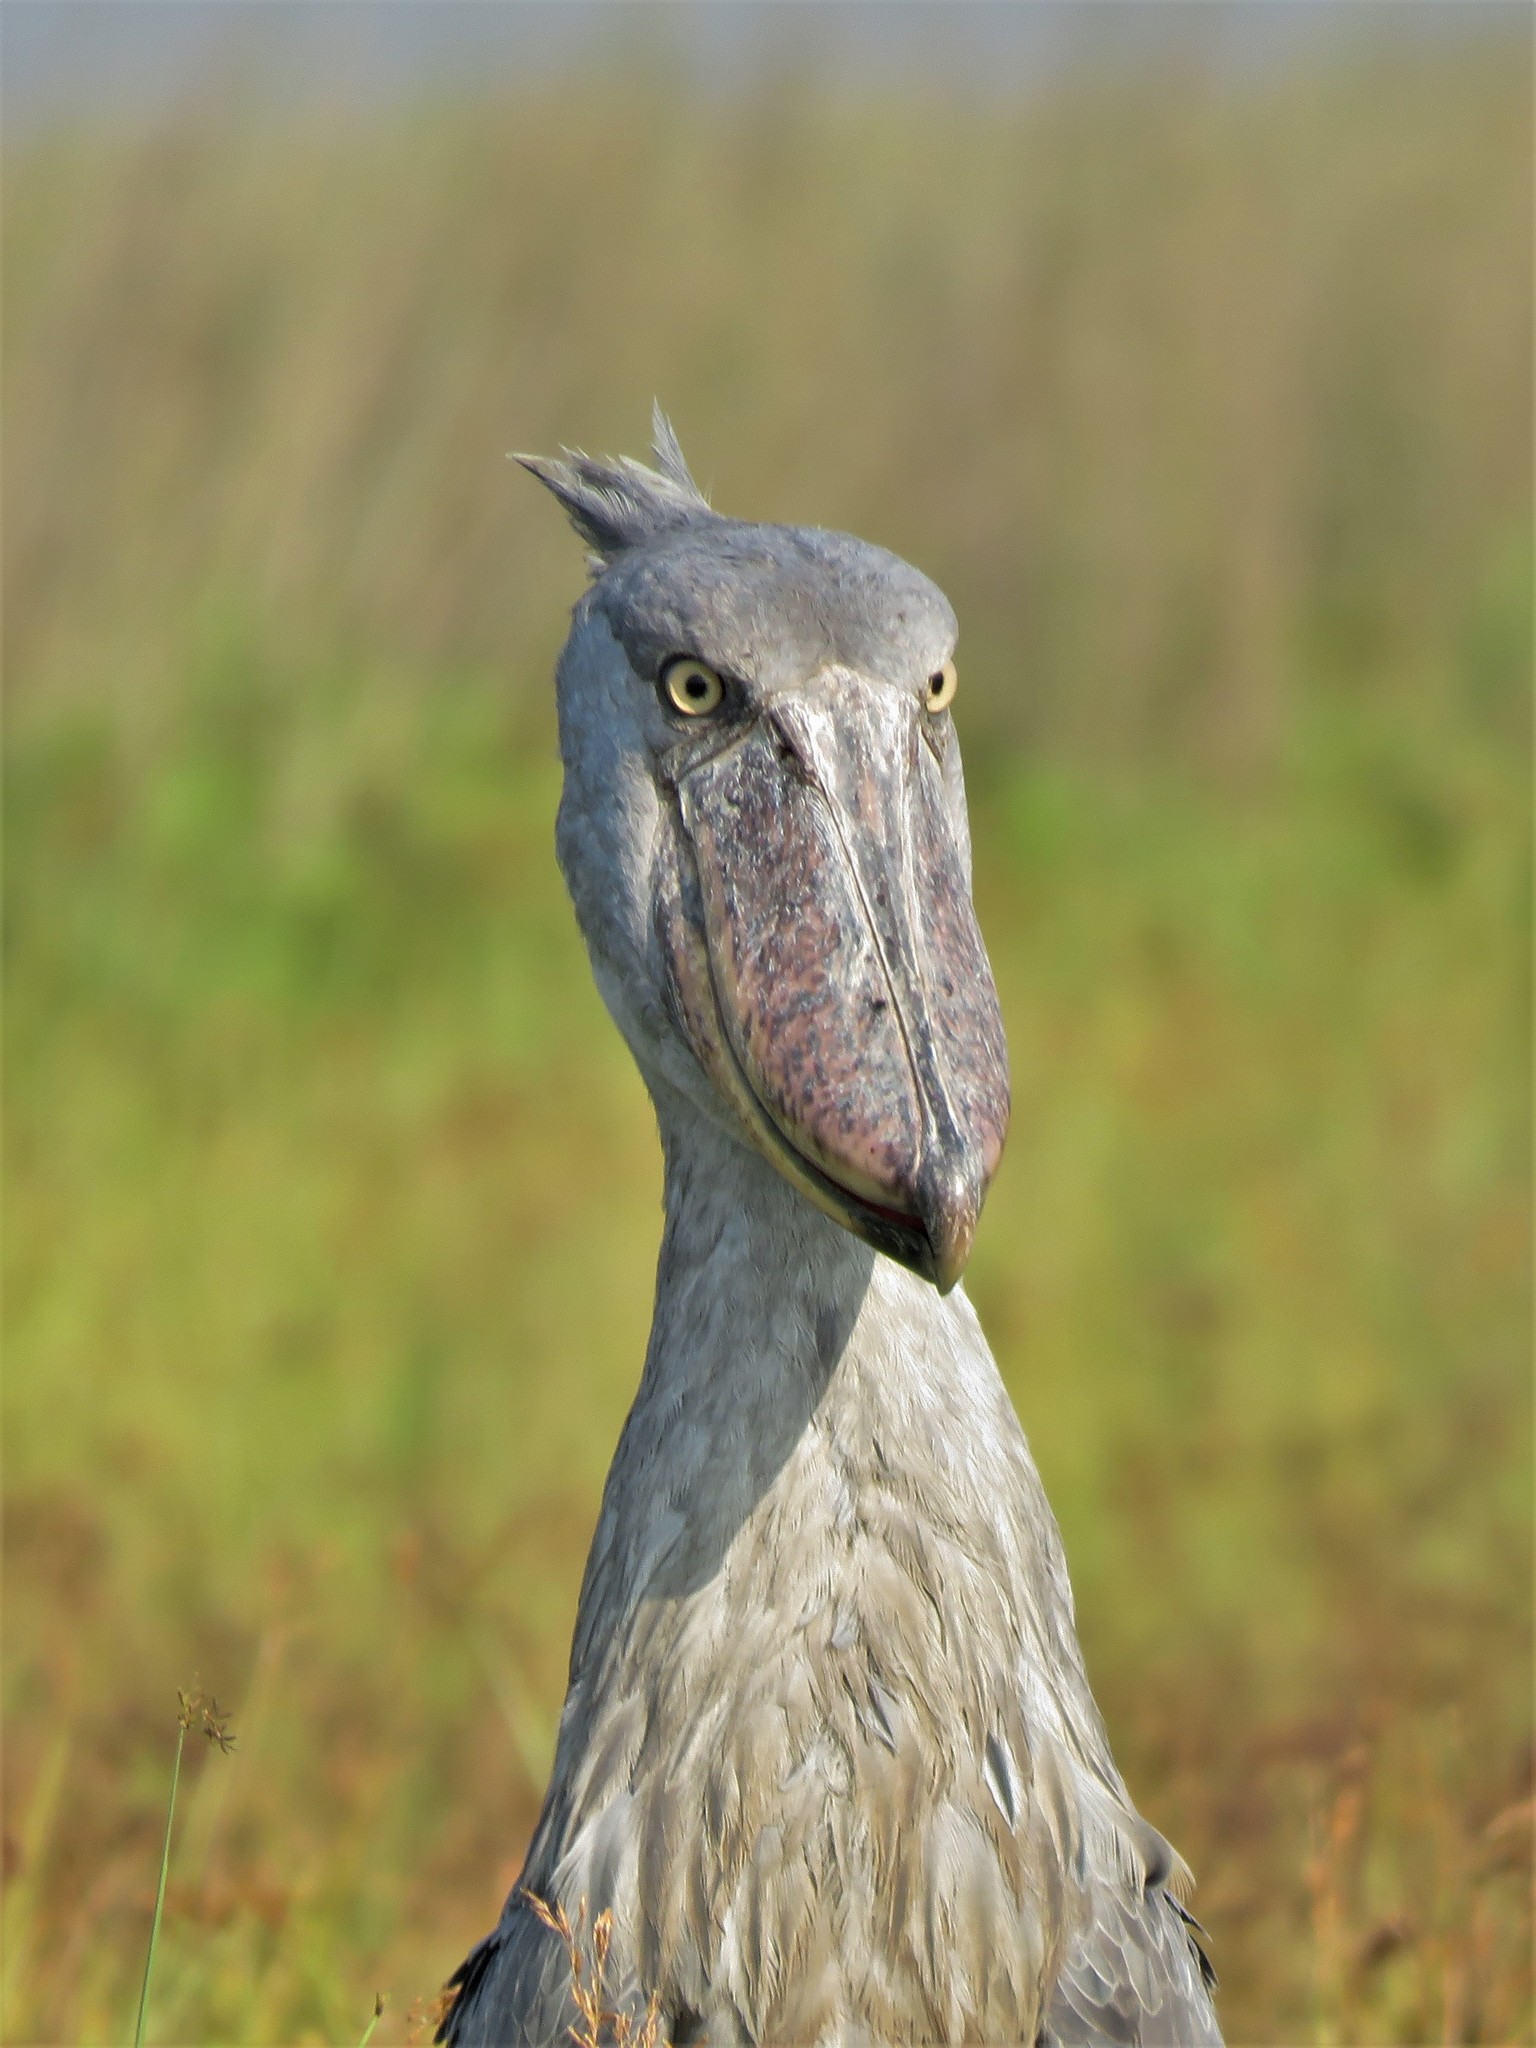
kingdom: Animalia
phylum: Chordata
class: Aves
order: Pelecaniformes
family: Balaenicipitidae
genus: Balaeniceps
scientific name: Balaeniceps rex
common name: Shoebill
